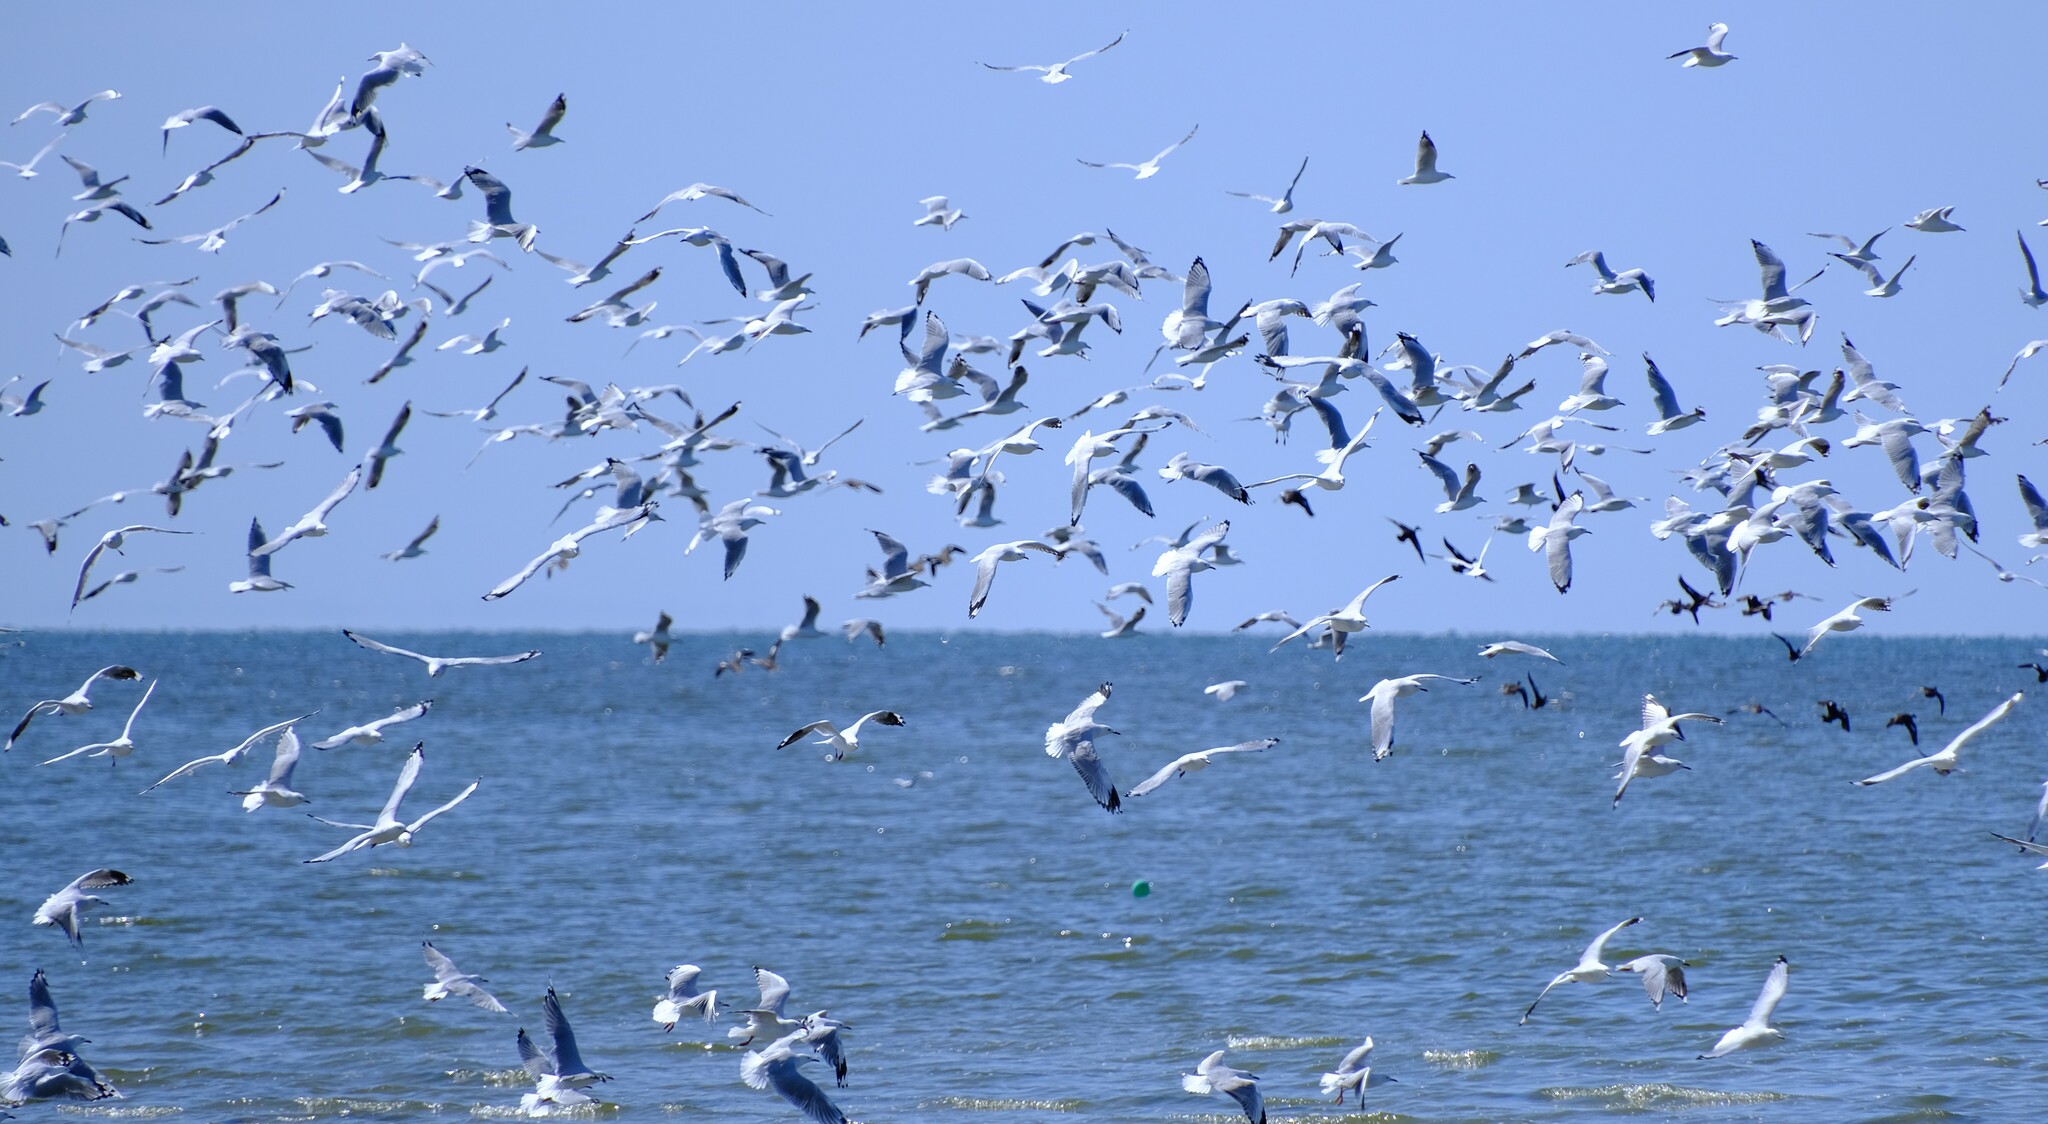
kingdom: Animalia
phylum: Chordata
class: Aves
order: Charadriiformes
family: Laridae
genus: Chroicocephalus
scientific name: Chroicocephalus novaehollandiae
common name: Silver gull
